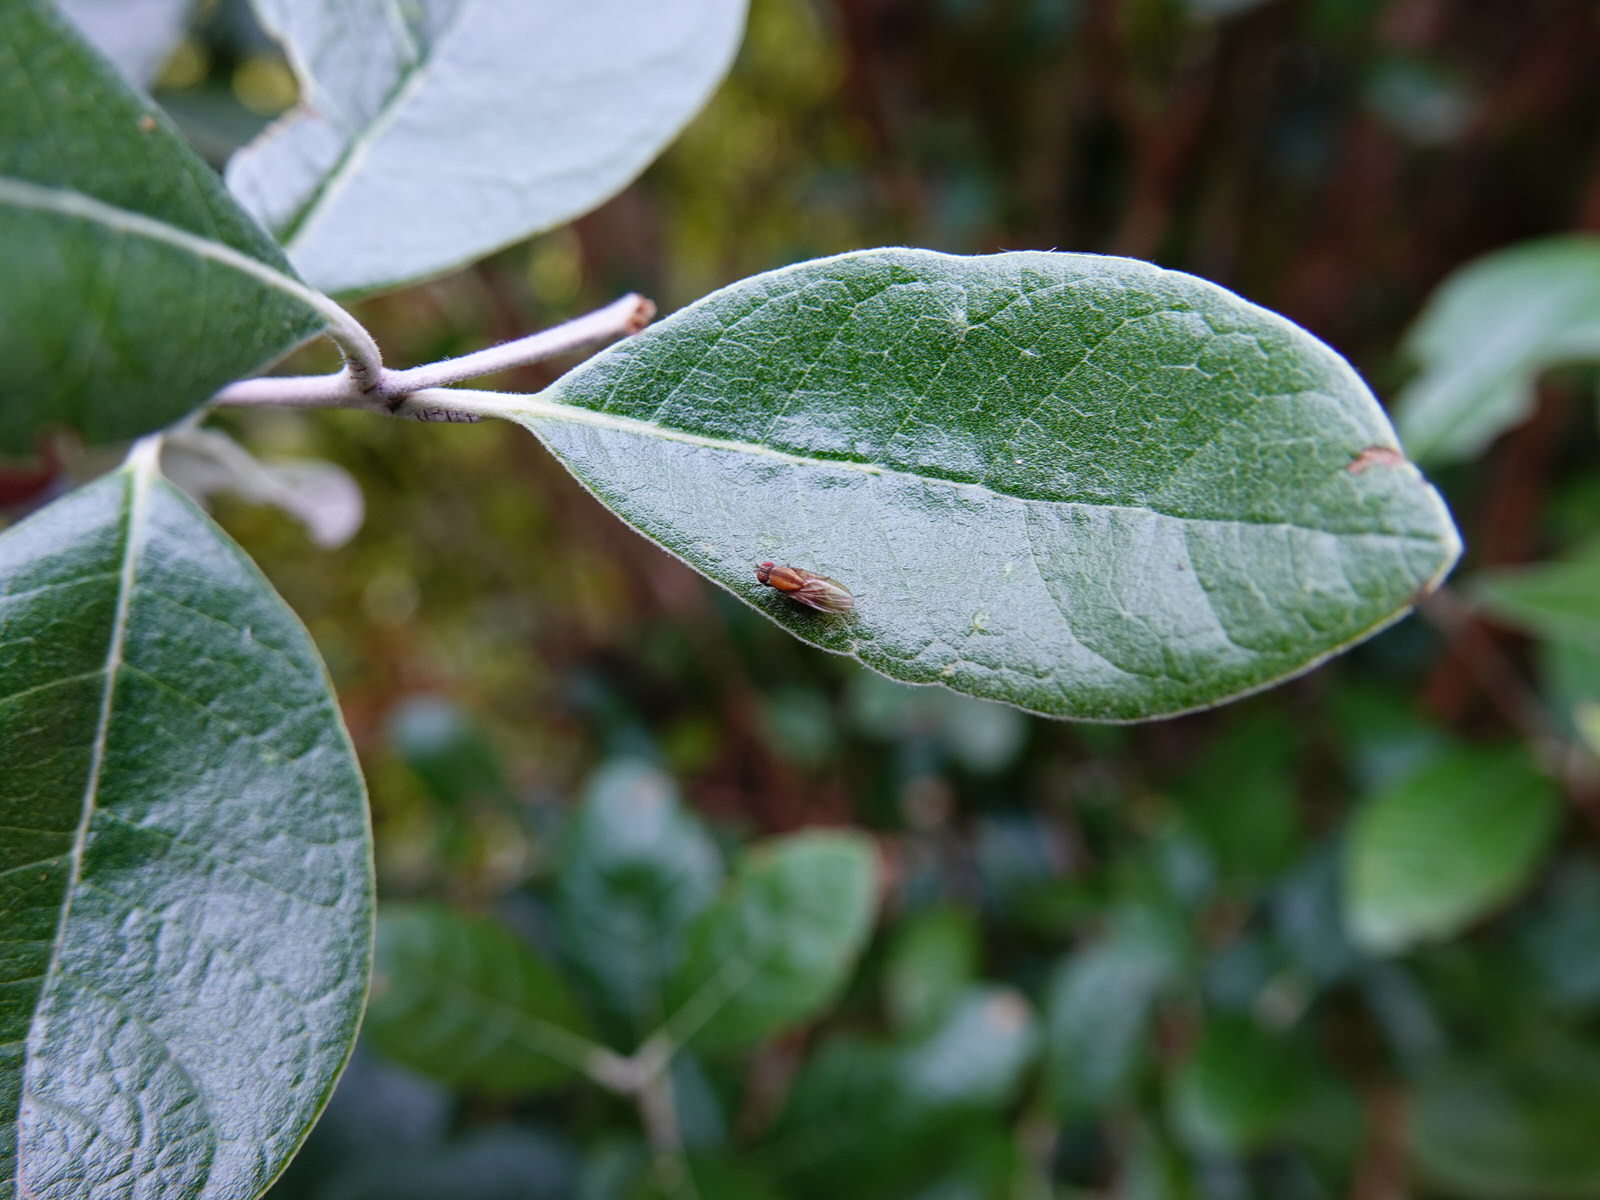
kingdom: Animalia
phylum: Arthropoda
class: Insecta
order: Diptera
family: Lauxaniidae
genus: Sapromyza
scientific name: Sapromyza neozelandica
